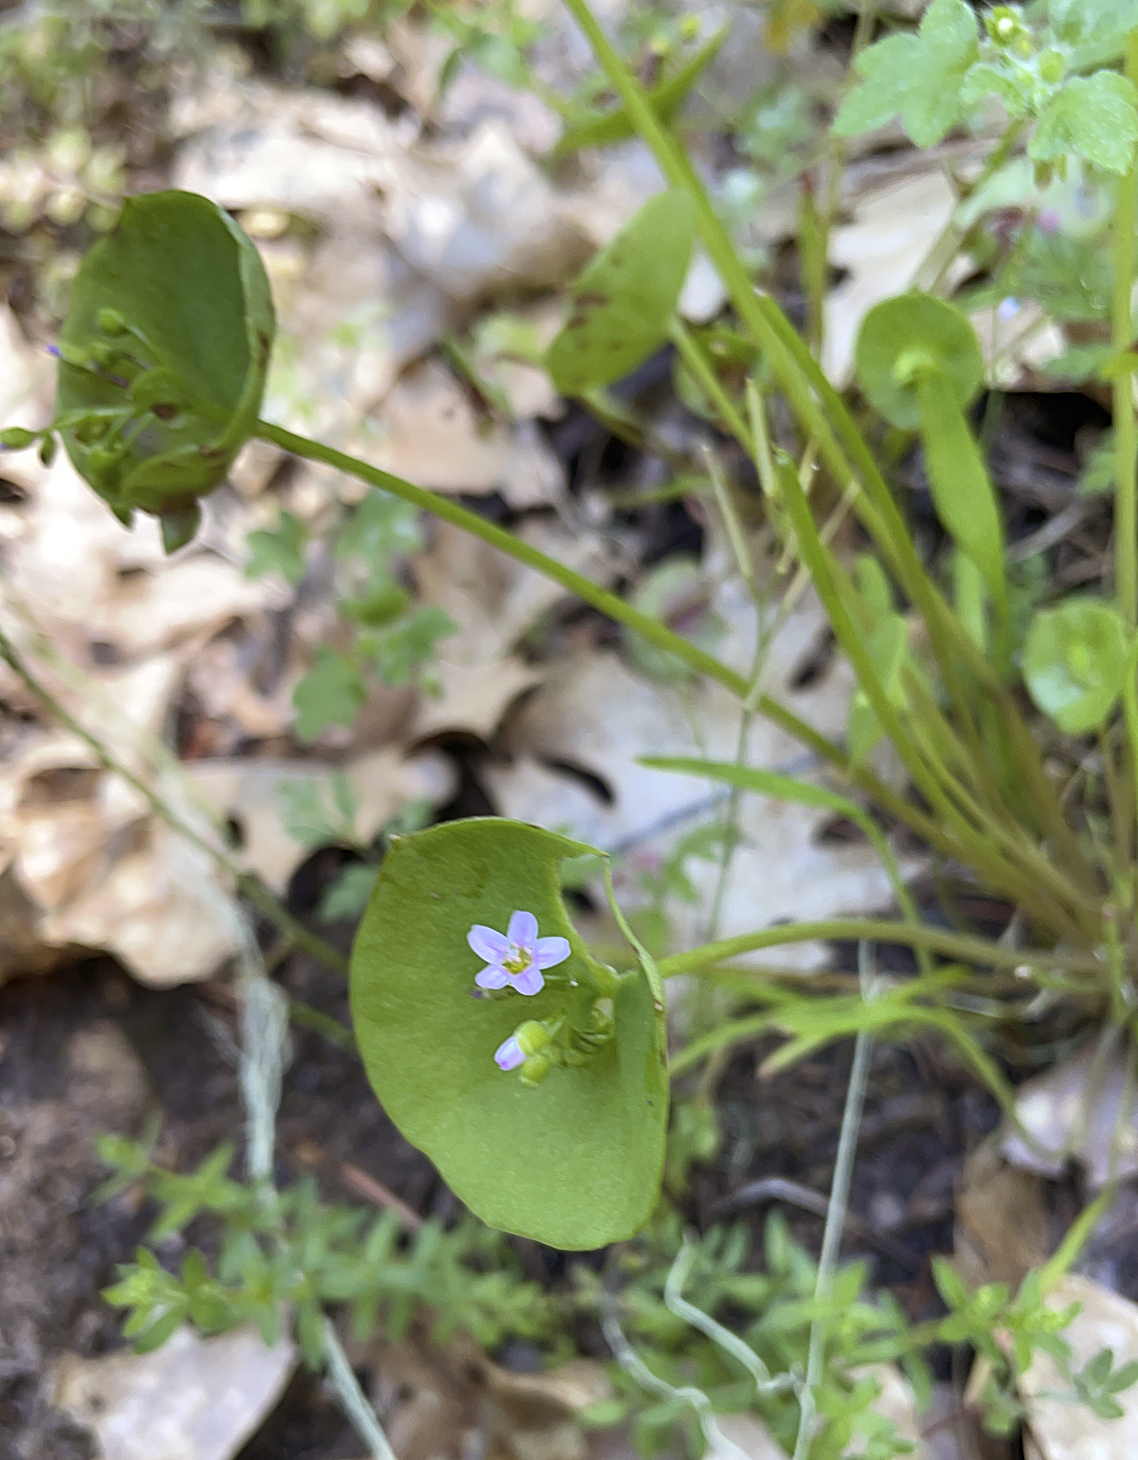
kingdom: Plantae
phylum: Tracheophyta
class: Magnoliopsida
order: Caryophyllales
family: Montiaceae
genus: Claytonia
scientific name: Claytonia parviflora
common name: Indian-lettuce
